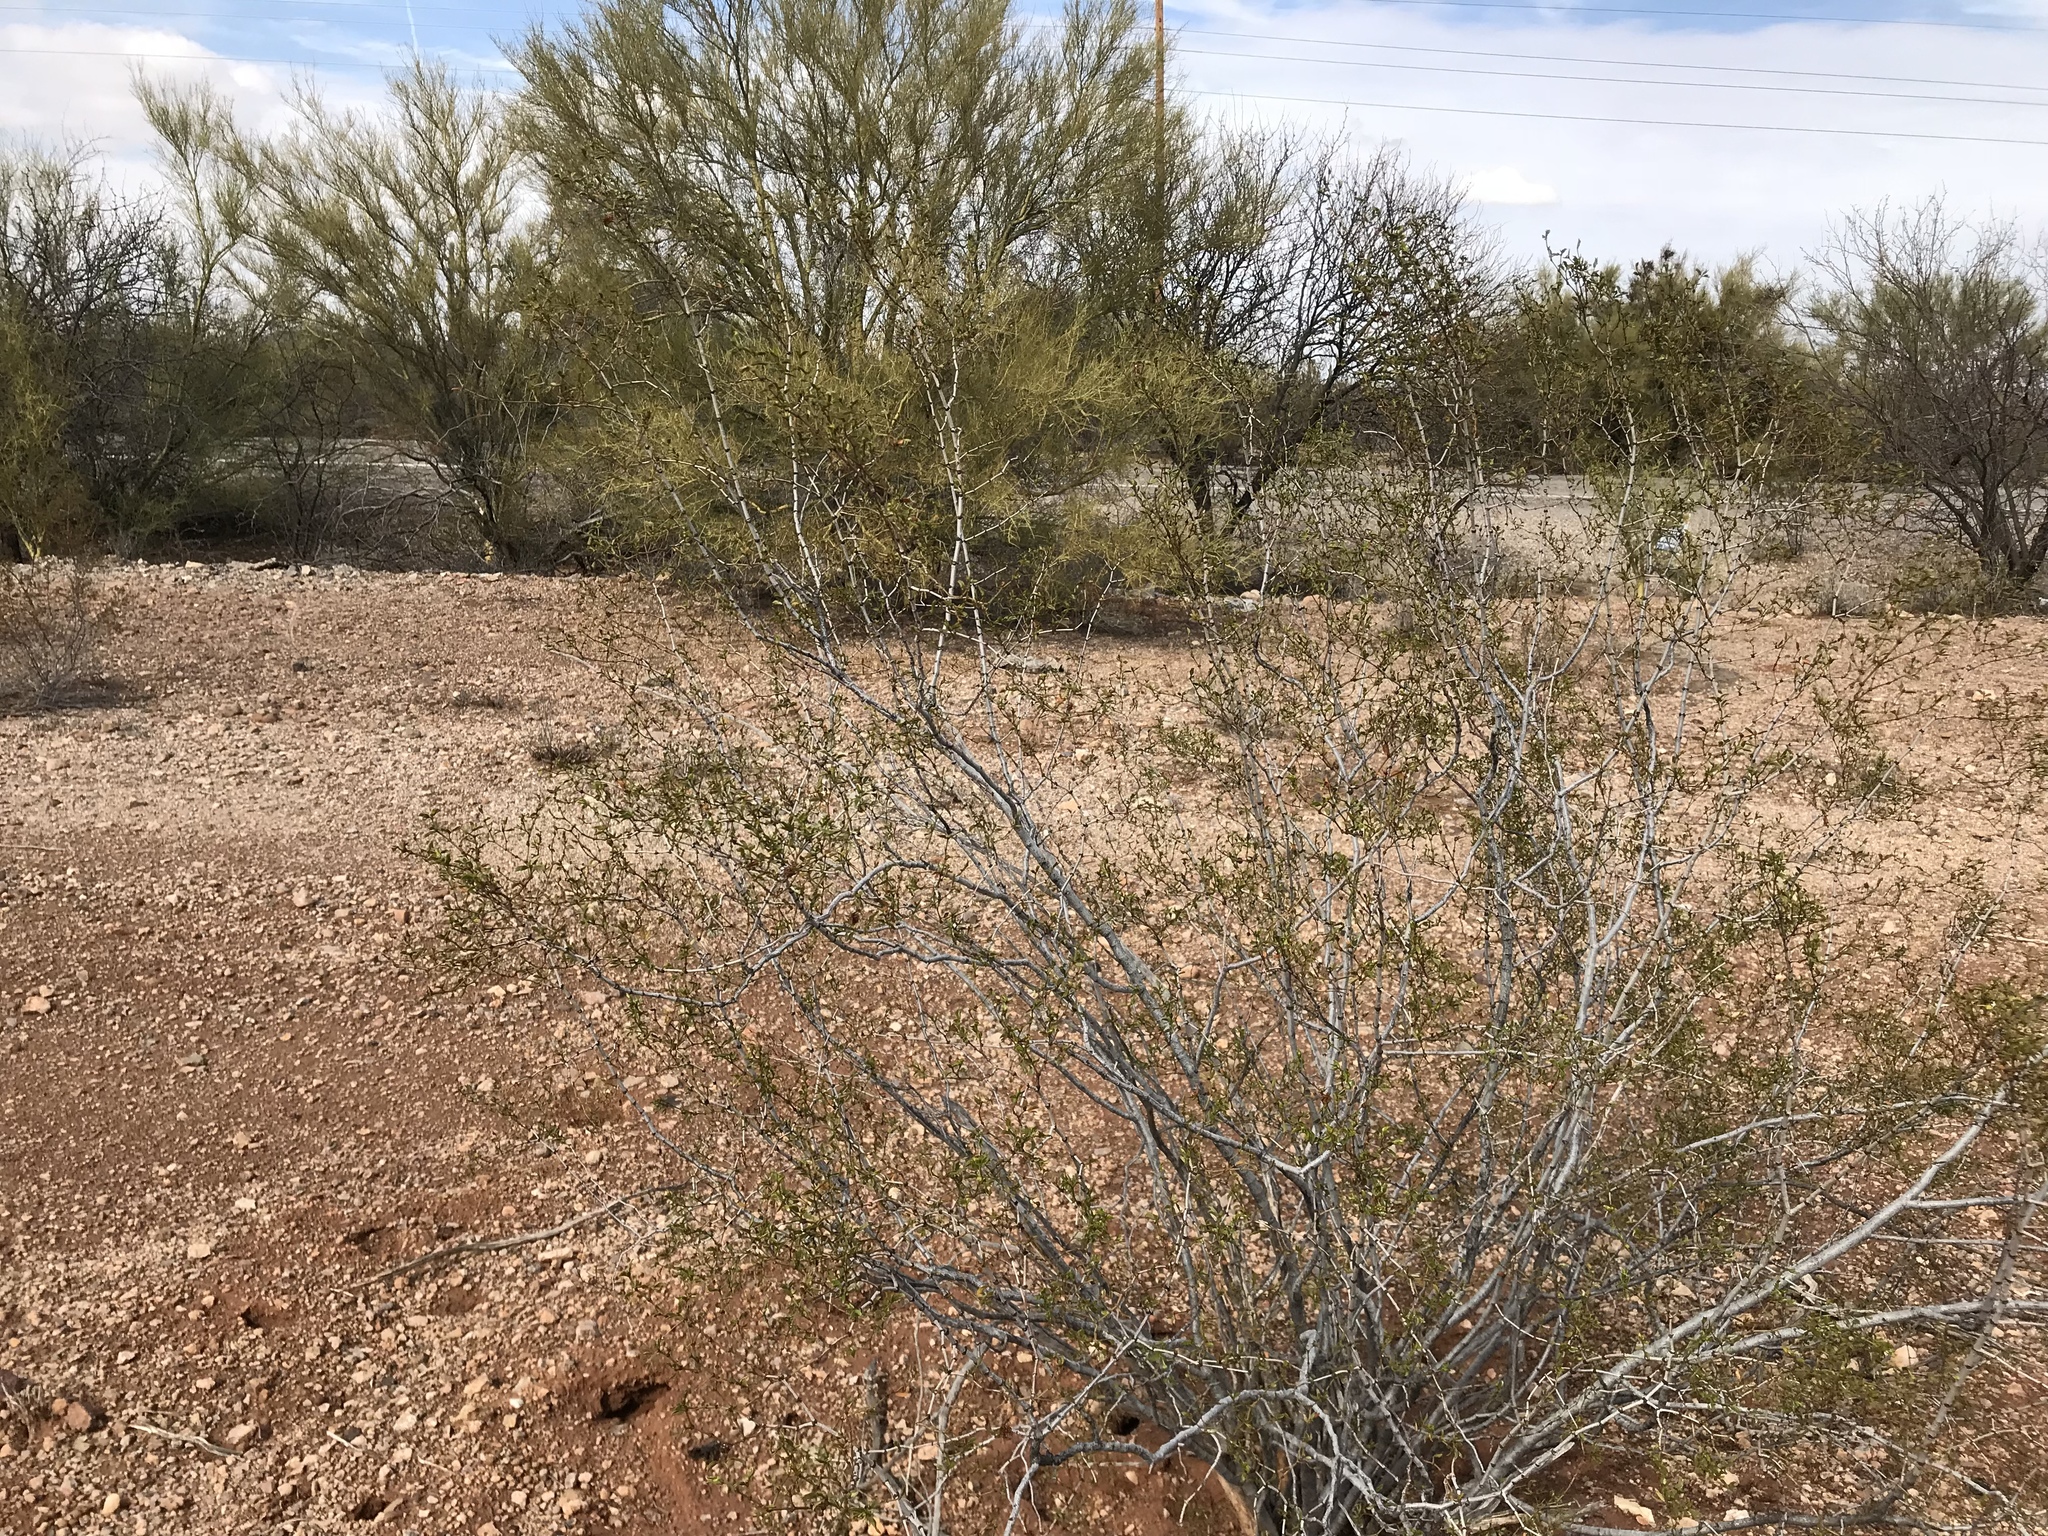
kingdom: Plantae
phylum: Tracheophyta
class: Magnoliopsida
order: Zygophyllales
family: Zygophyllaceae
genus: Larrea
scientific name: Larrea tridentata
